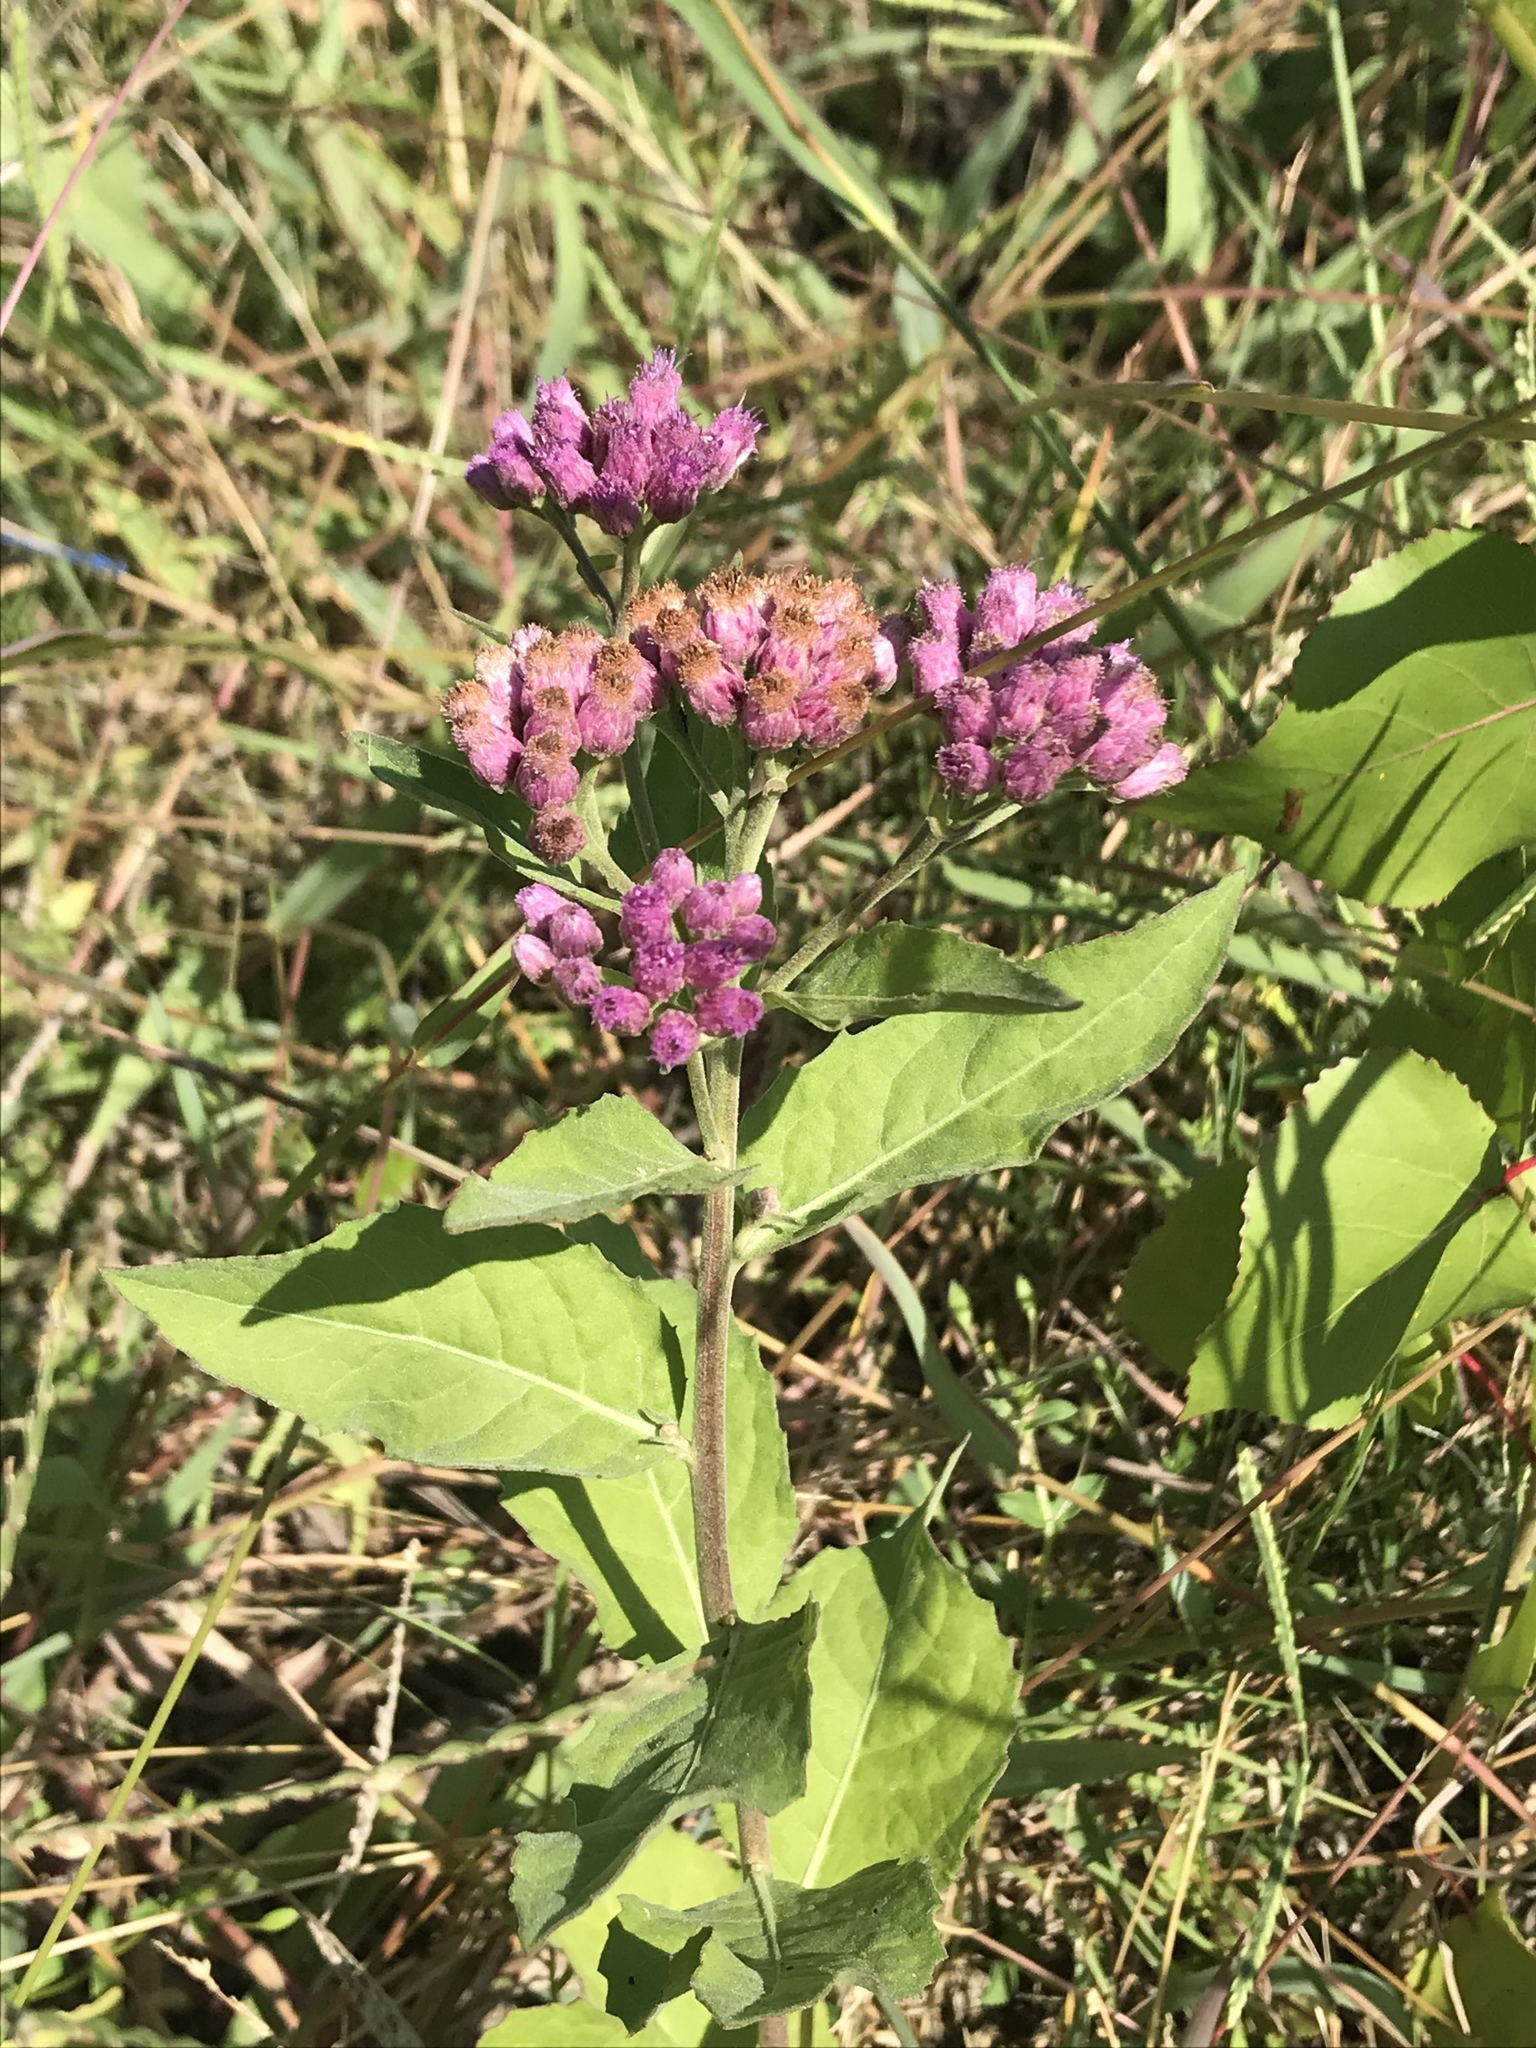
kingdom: Plantae
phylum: Tracheophyta
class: Magnoliopsida
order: Asterales
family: Asteraceae
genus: Pluchea
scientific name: Pluchea odorata
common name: Saltmarsh fleabane
